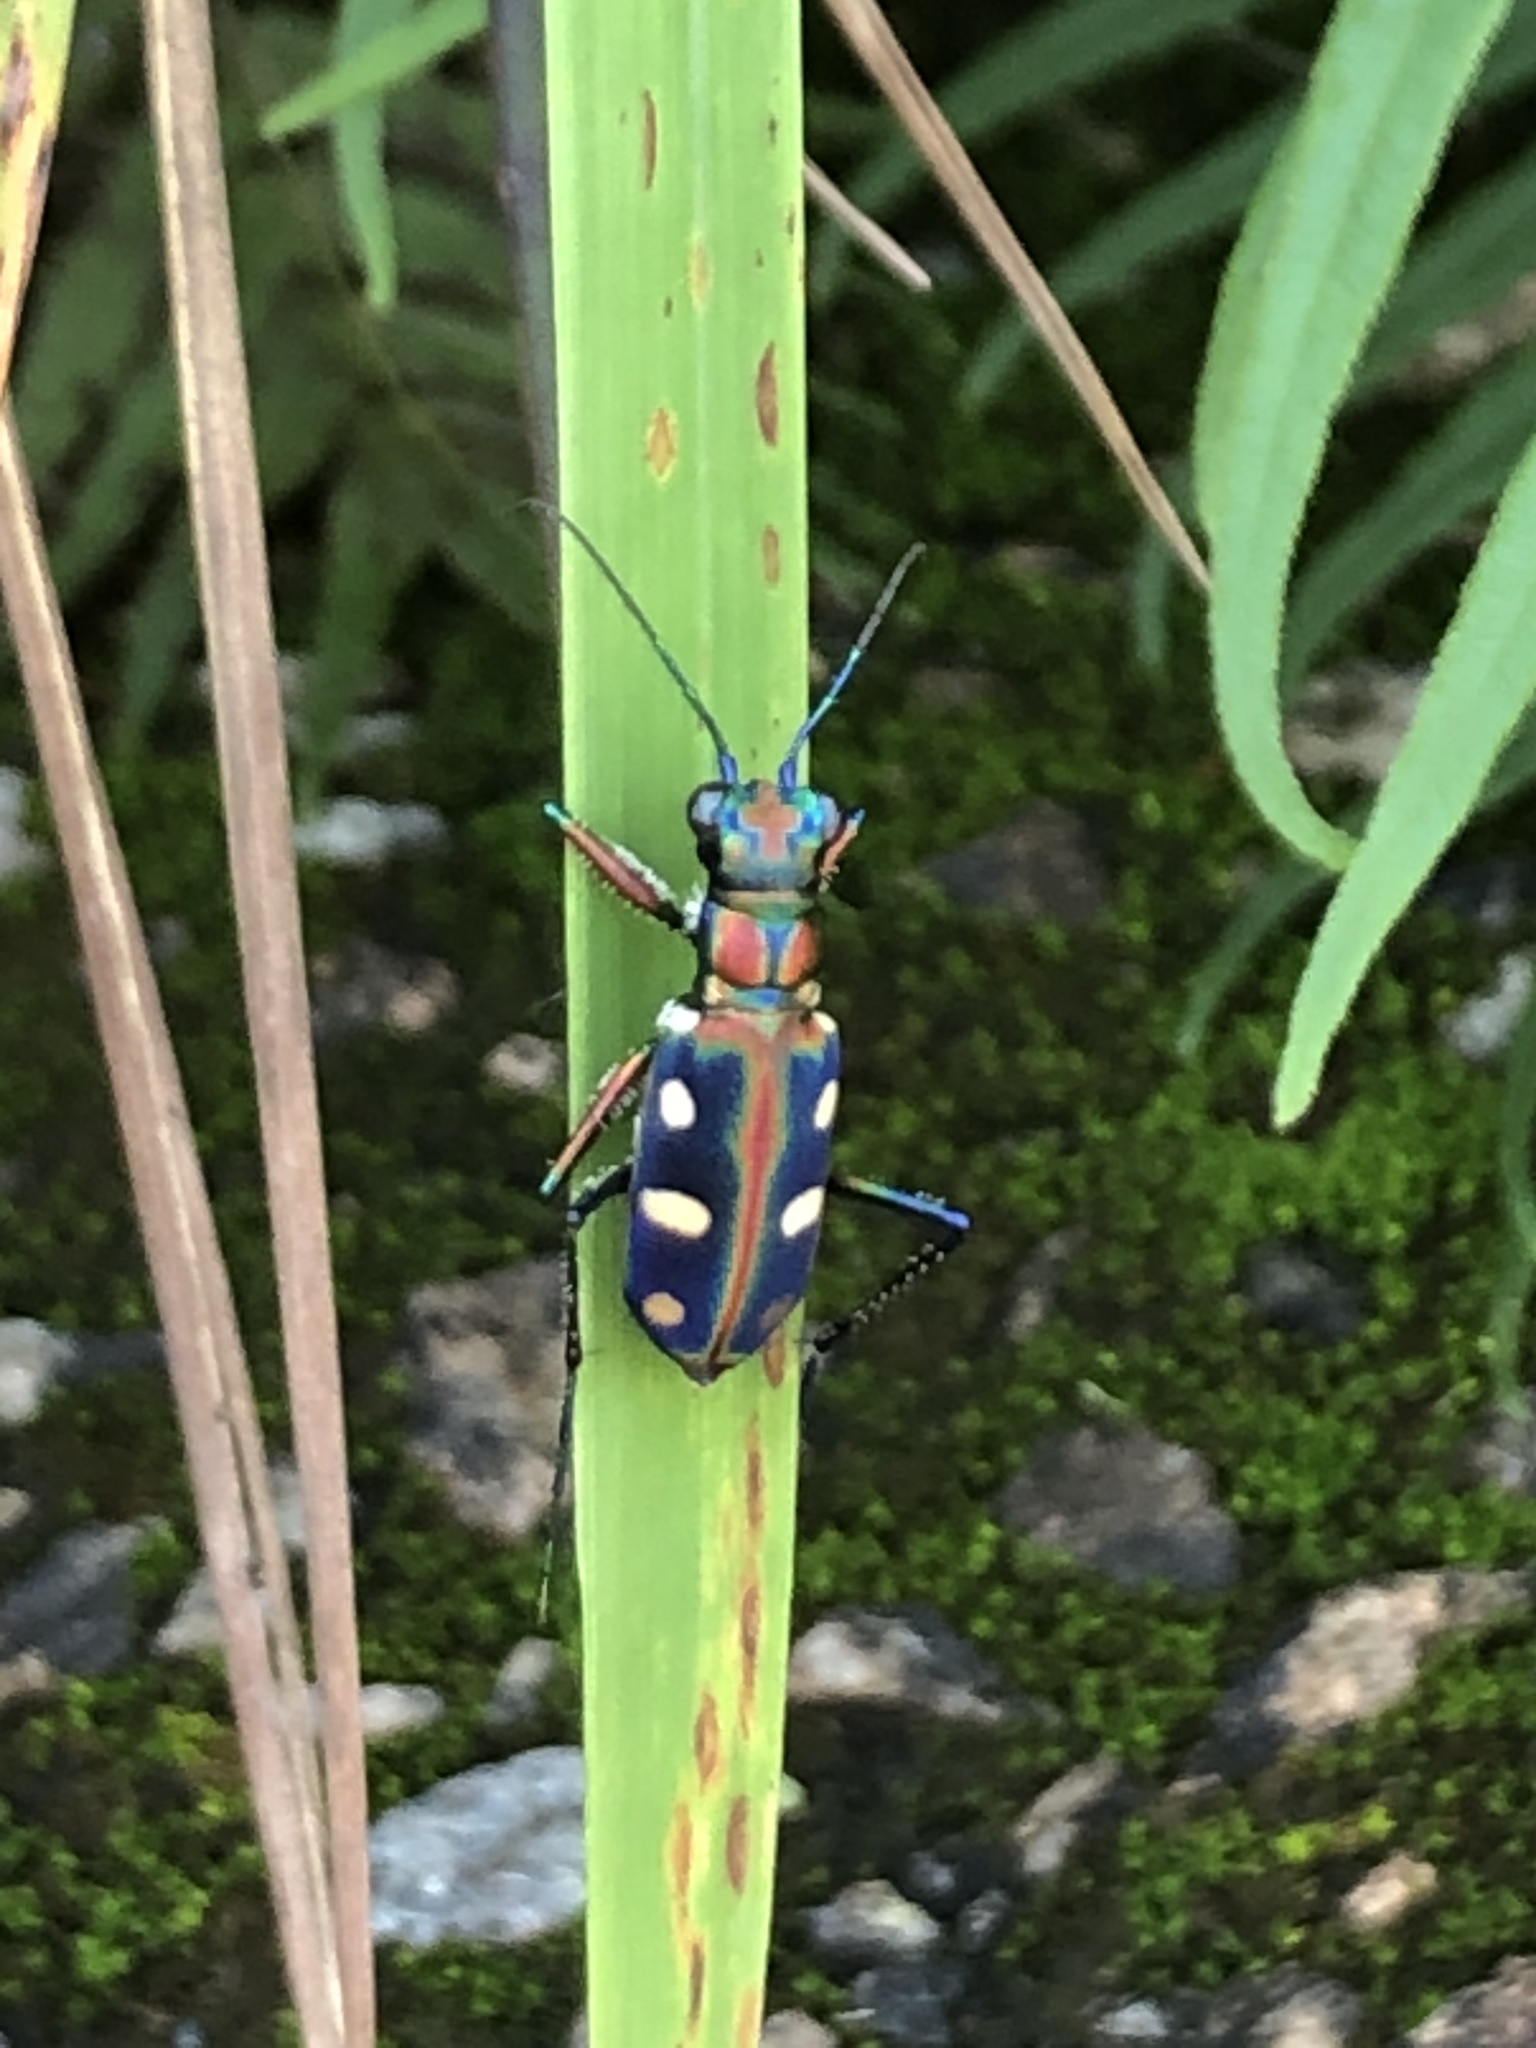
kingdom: Animalia
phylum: Arthropoda
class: Insecta
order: Coleoptera
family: Carabidae
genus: Cicindela
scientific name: Cicindela juxtata
